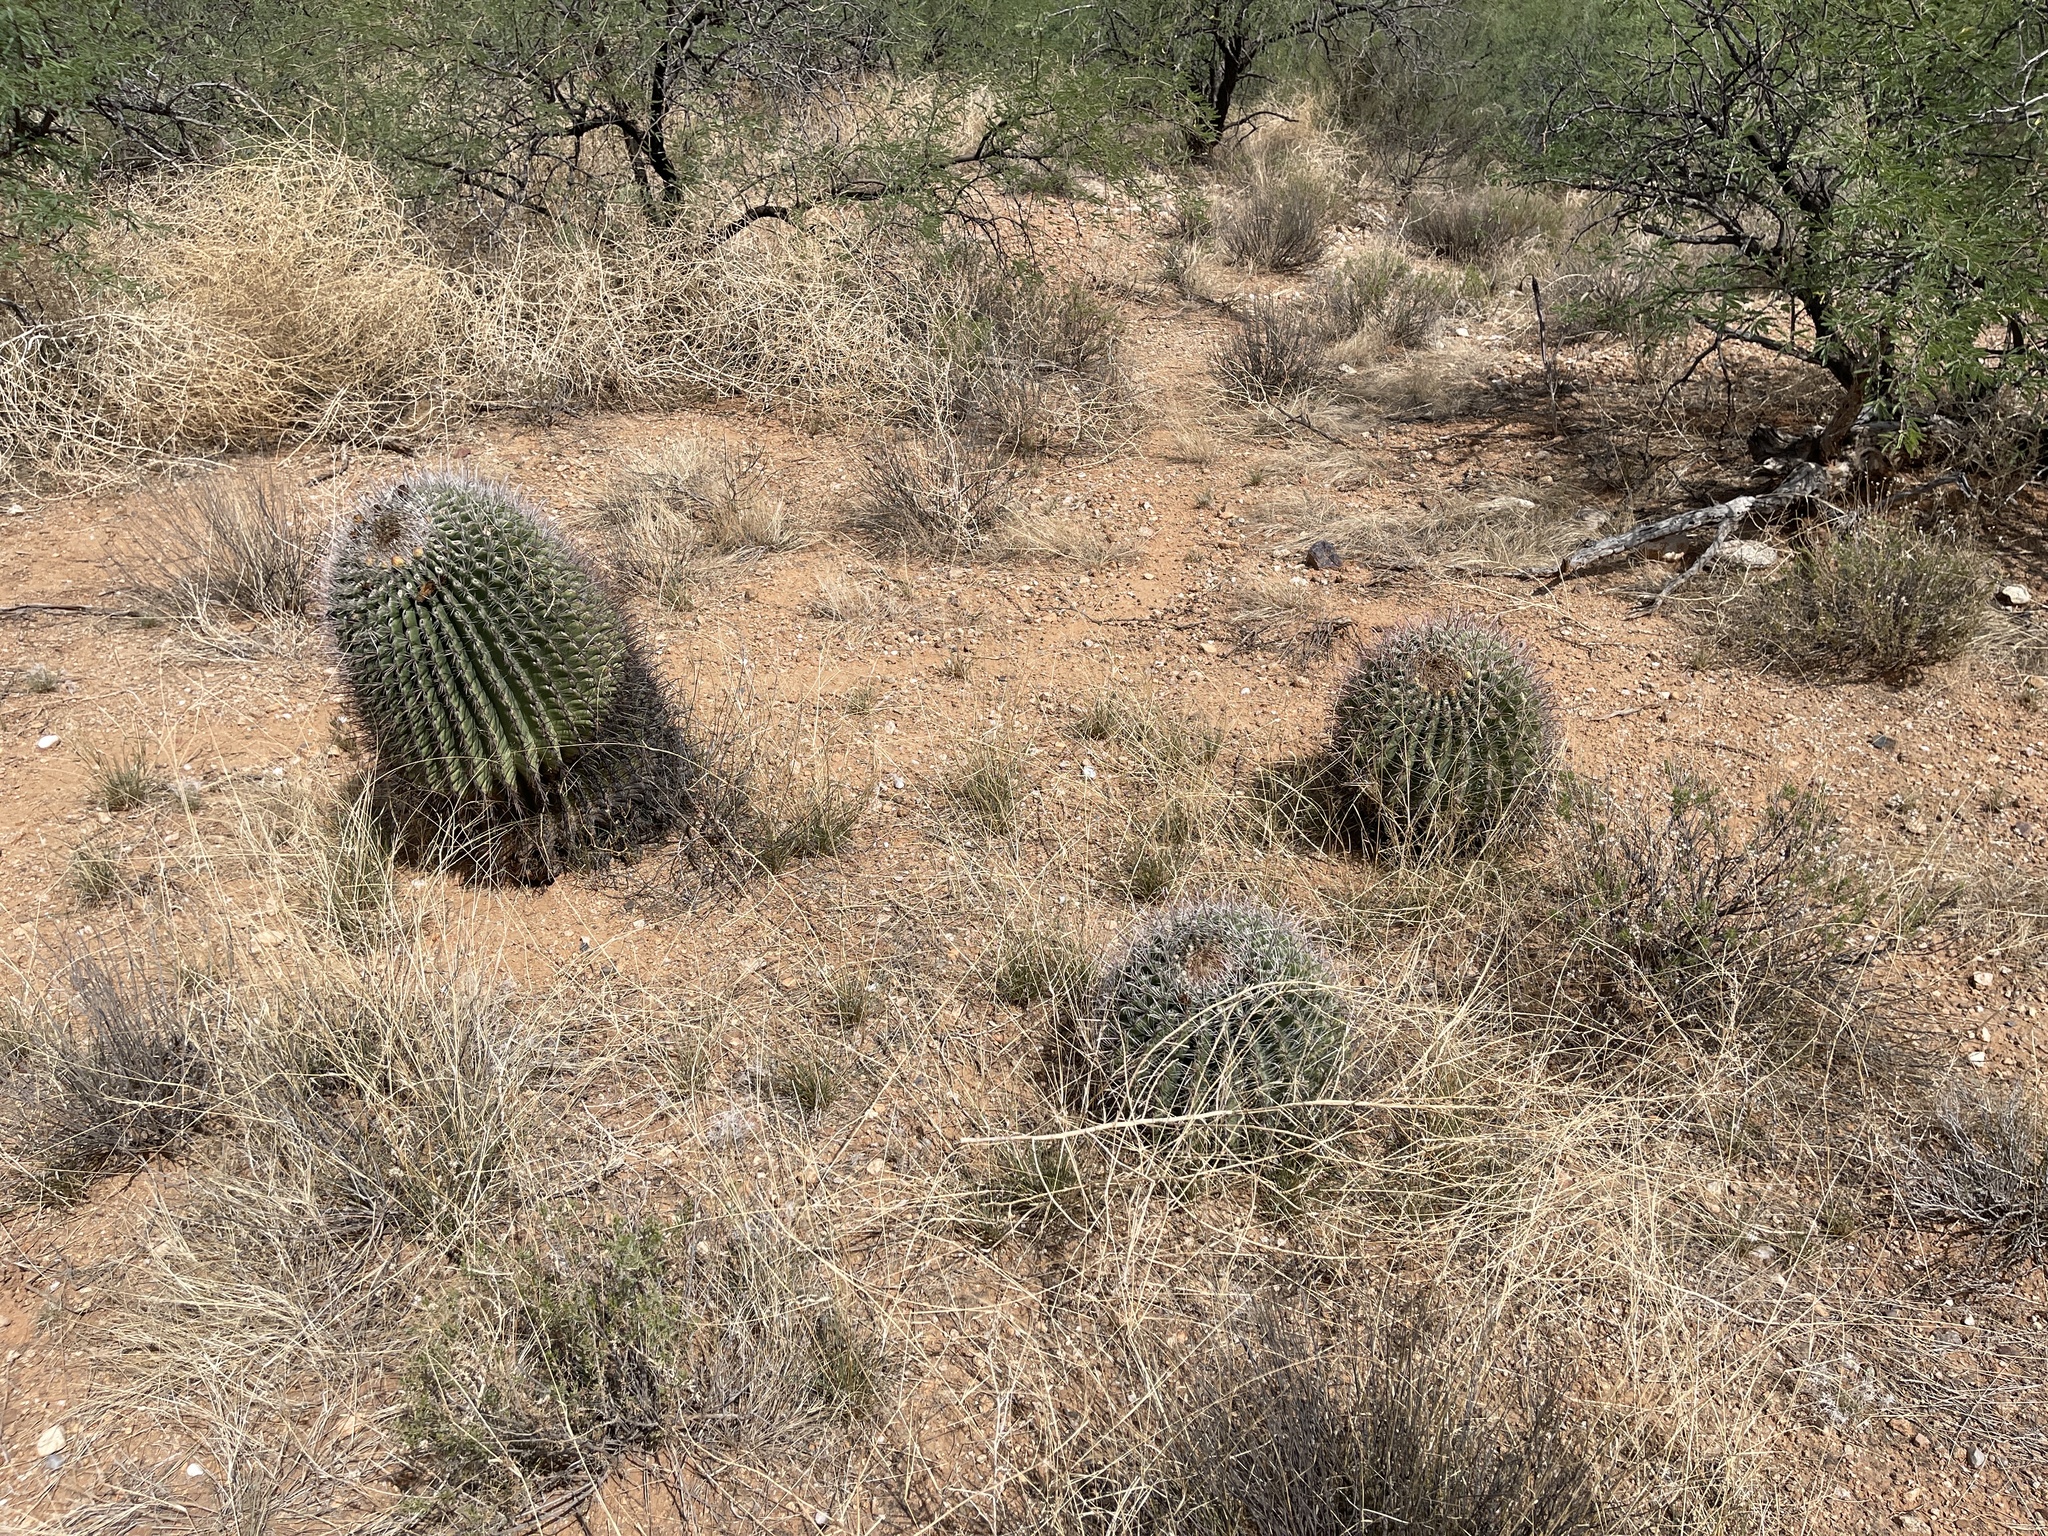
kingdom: Plantae
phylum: Tracheophyta
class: Magnoliopsida
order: Caryophyllales
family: Cactaceae
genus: Ferocactus
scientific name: Ferocactus wislizeni
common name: Candy barrel cactus
